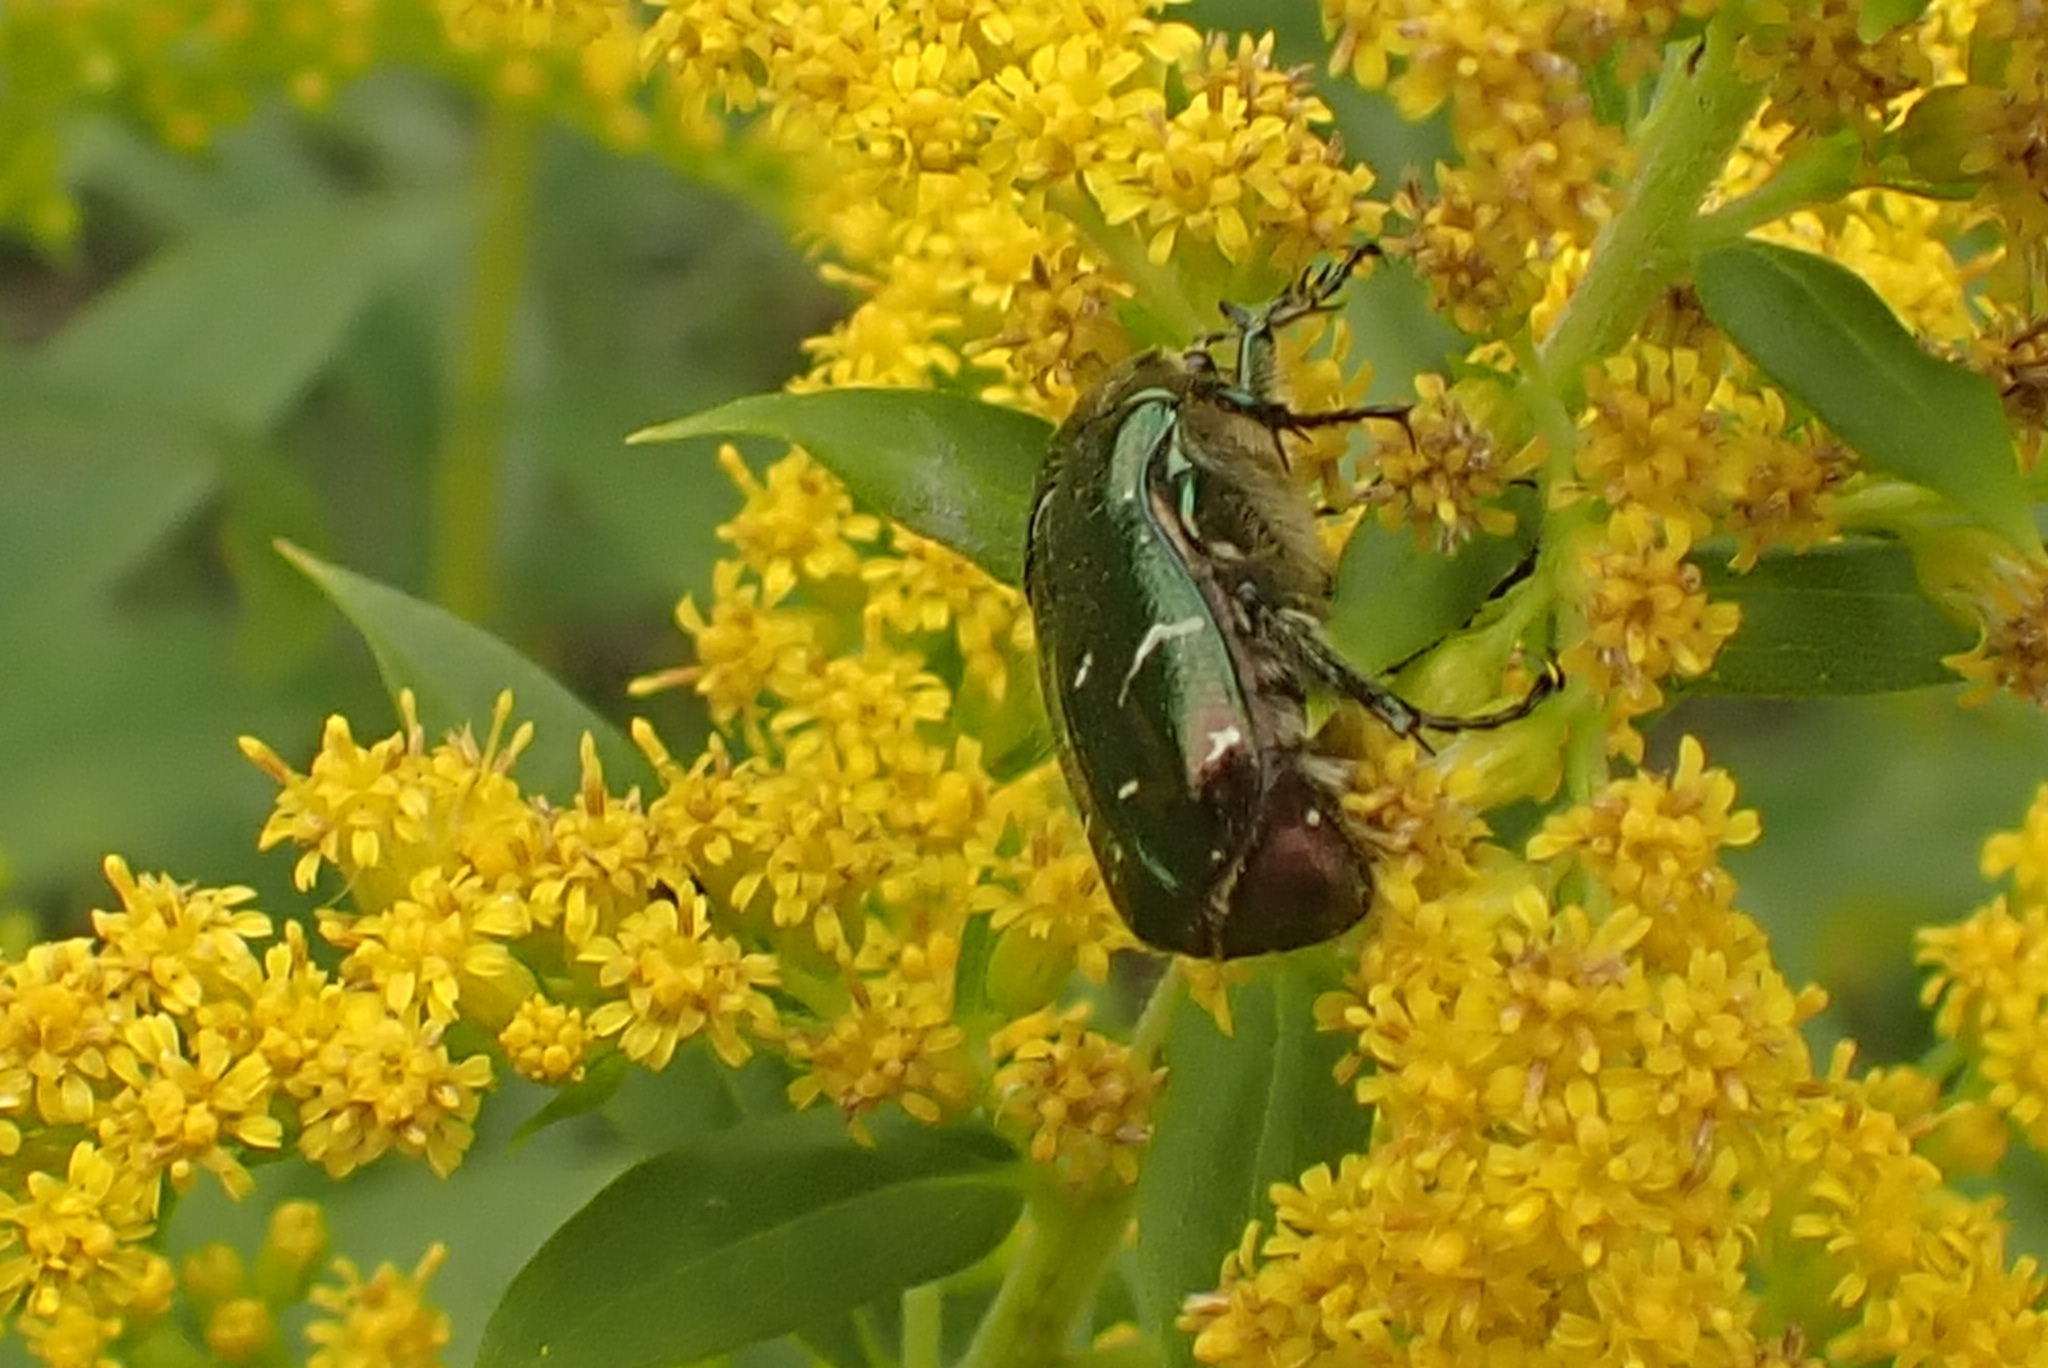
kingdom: Animalia
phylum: Arthropoda
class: Insecta
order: Coleoptera
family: Scarabaeidae
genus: Cetonia
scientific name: Cetonia aurata
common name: Rose chafer
